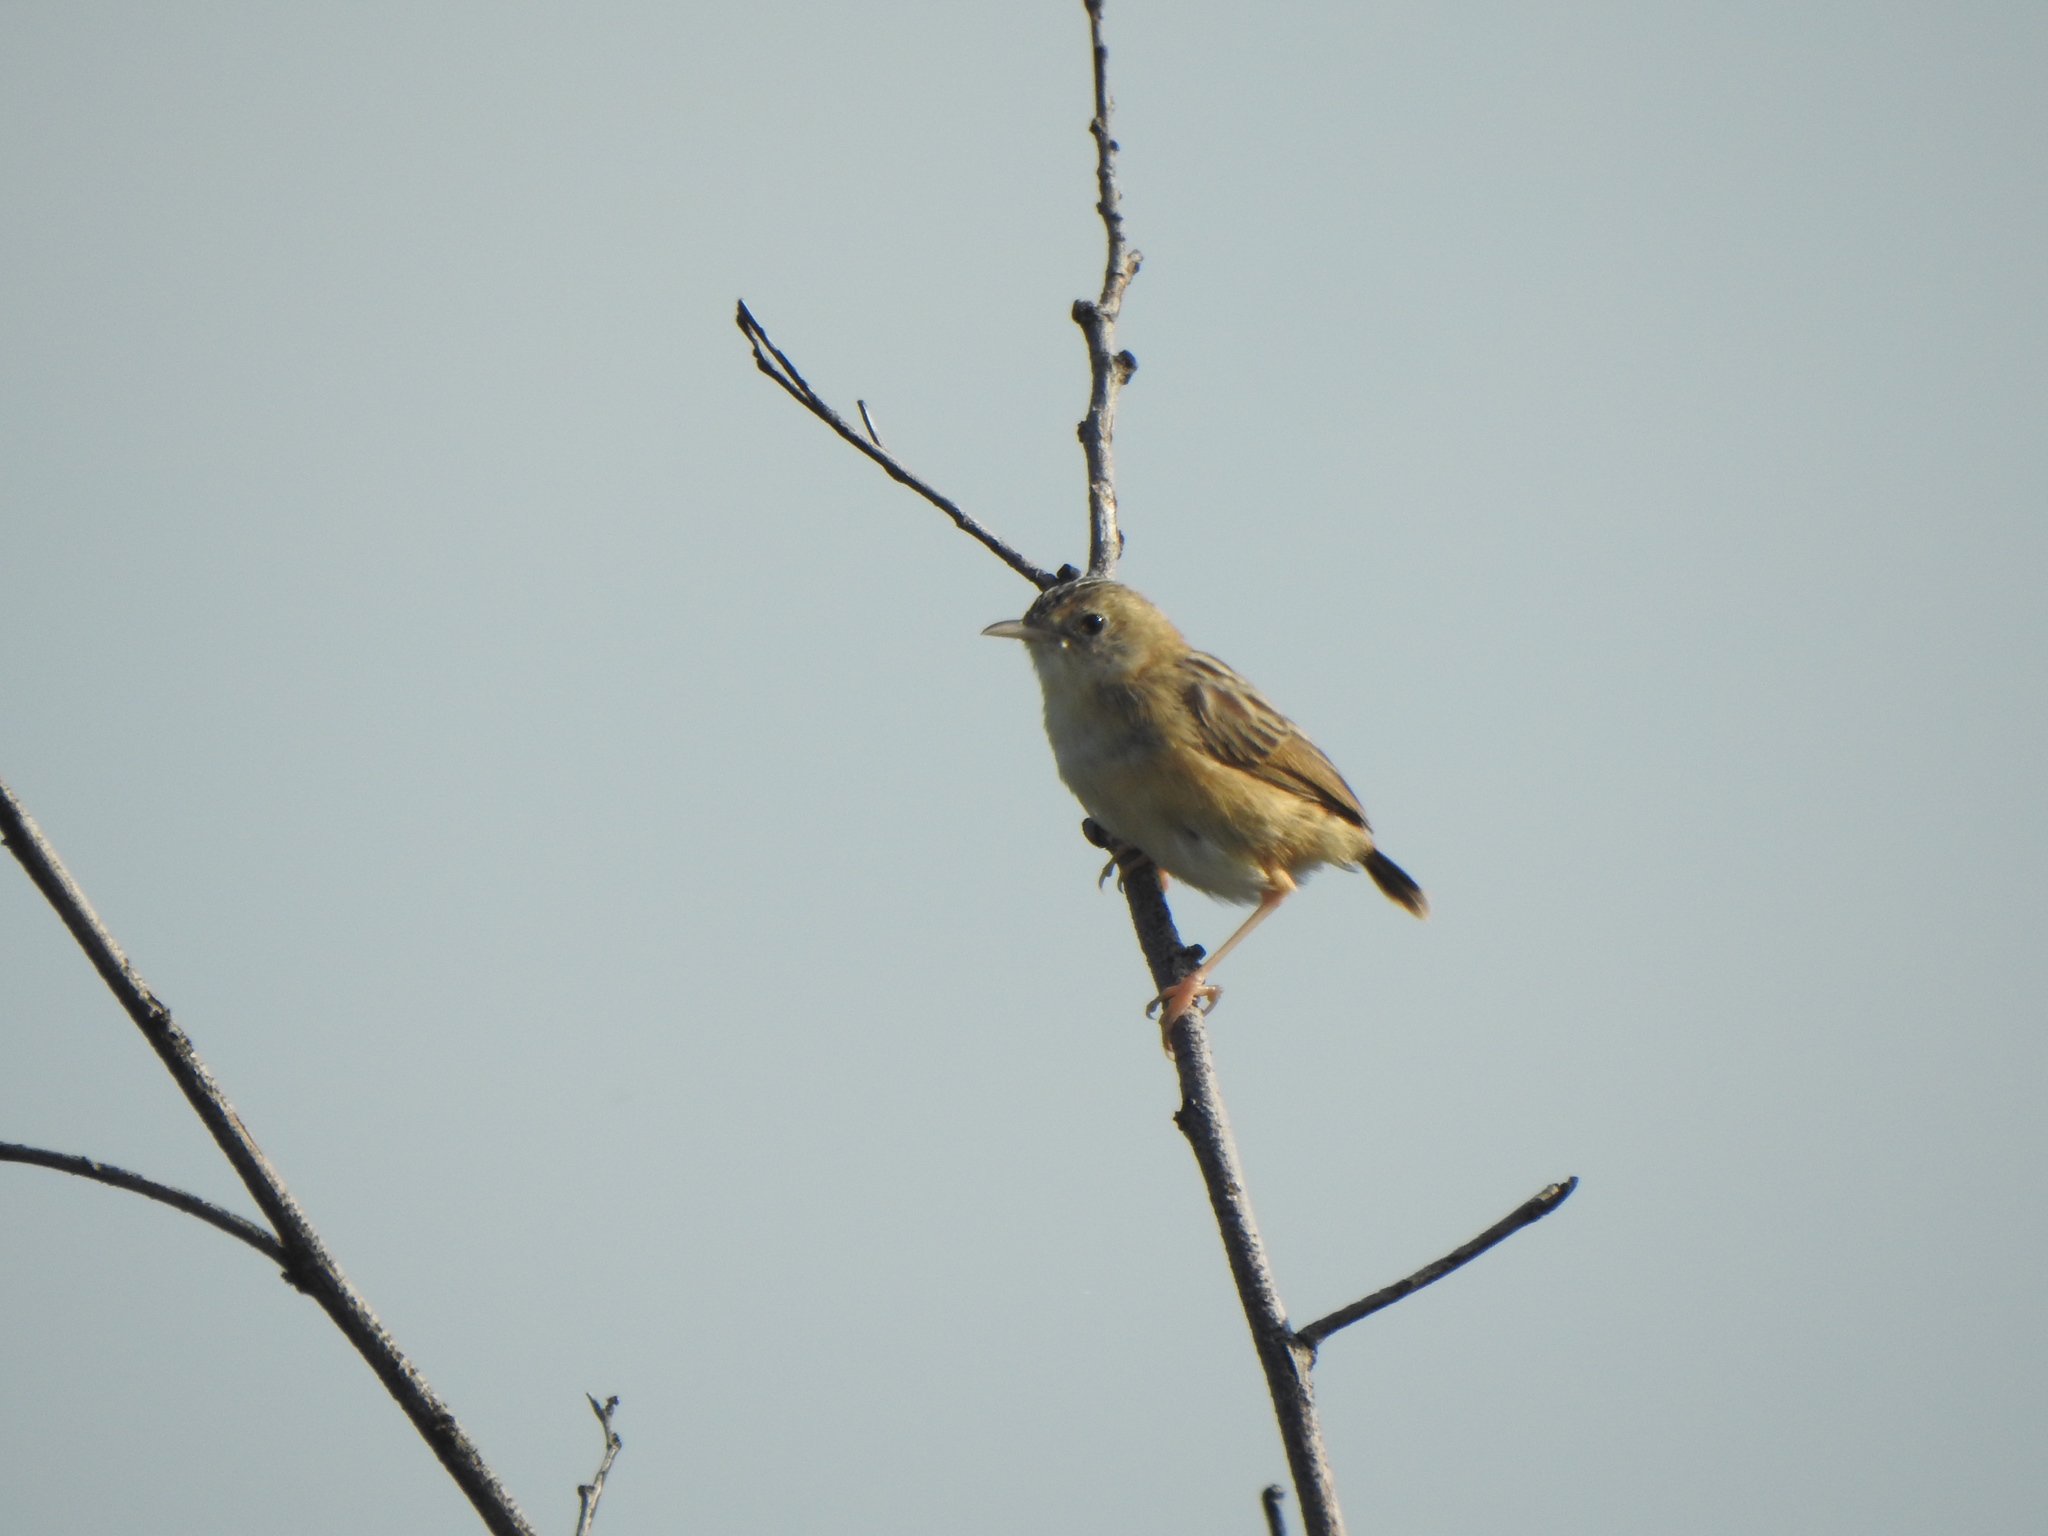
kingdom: Animalia
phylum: Chordata
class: Aves
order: Passeriformes
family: Cisticolidae
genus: Cisticola
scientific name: Cisticola exilis
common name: Golden-headed cisticola
